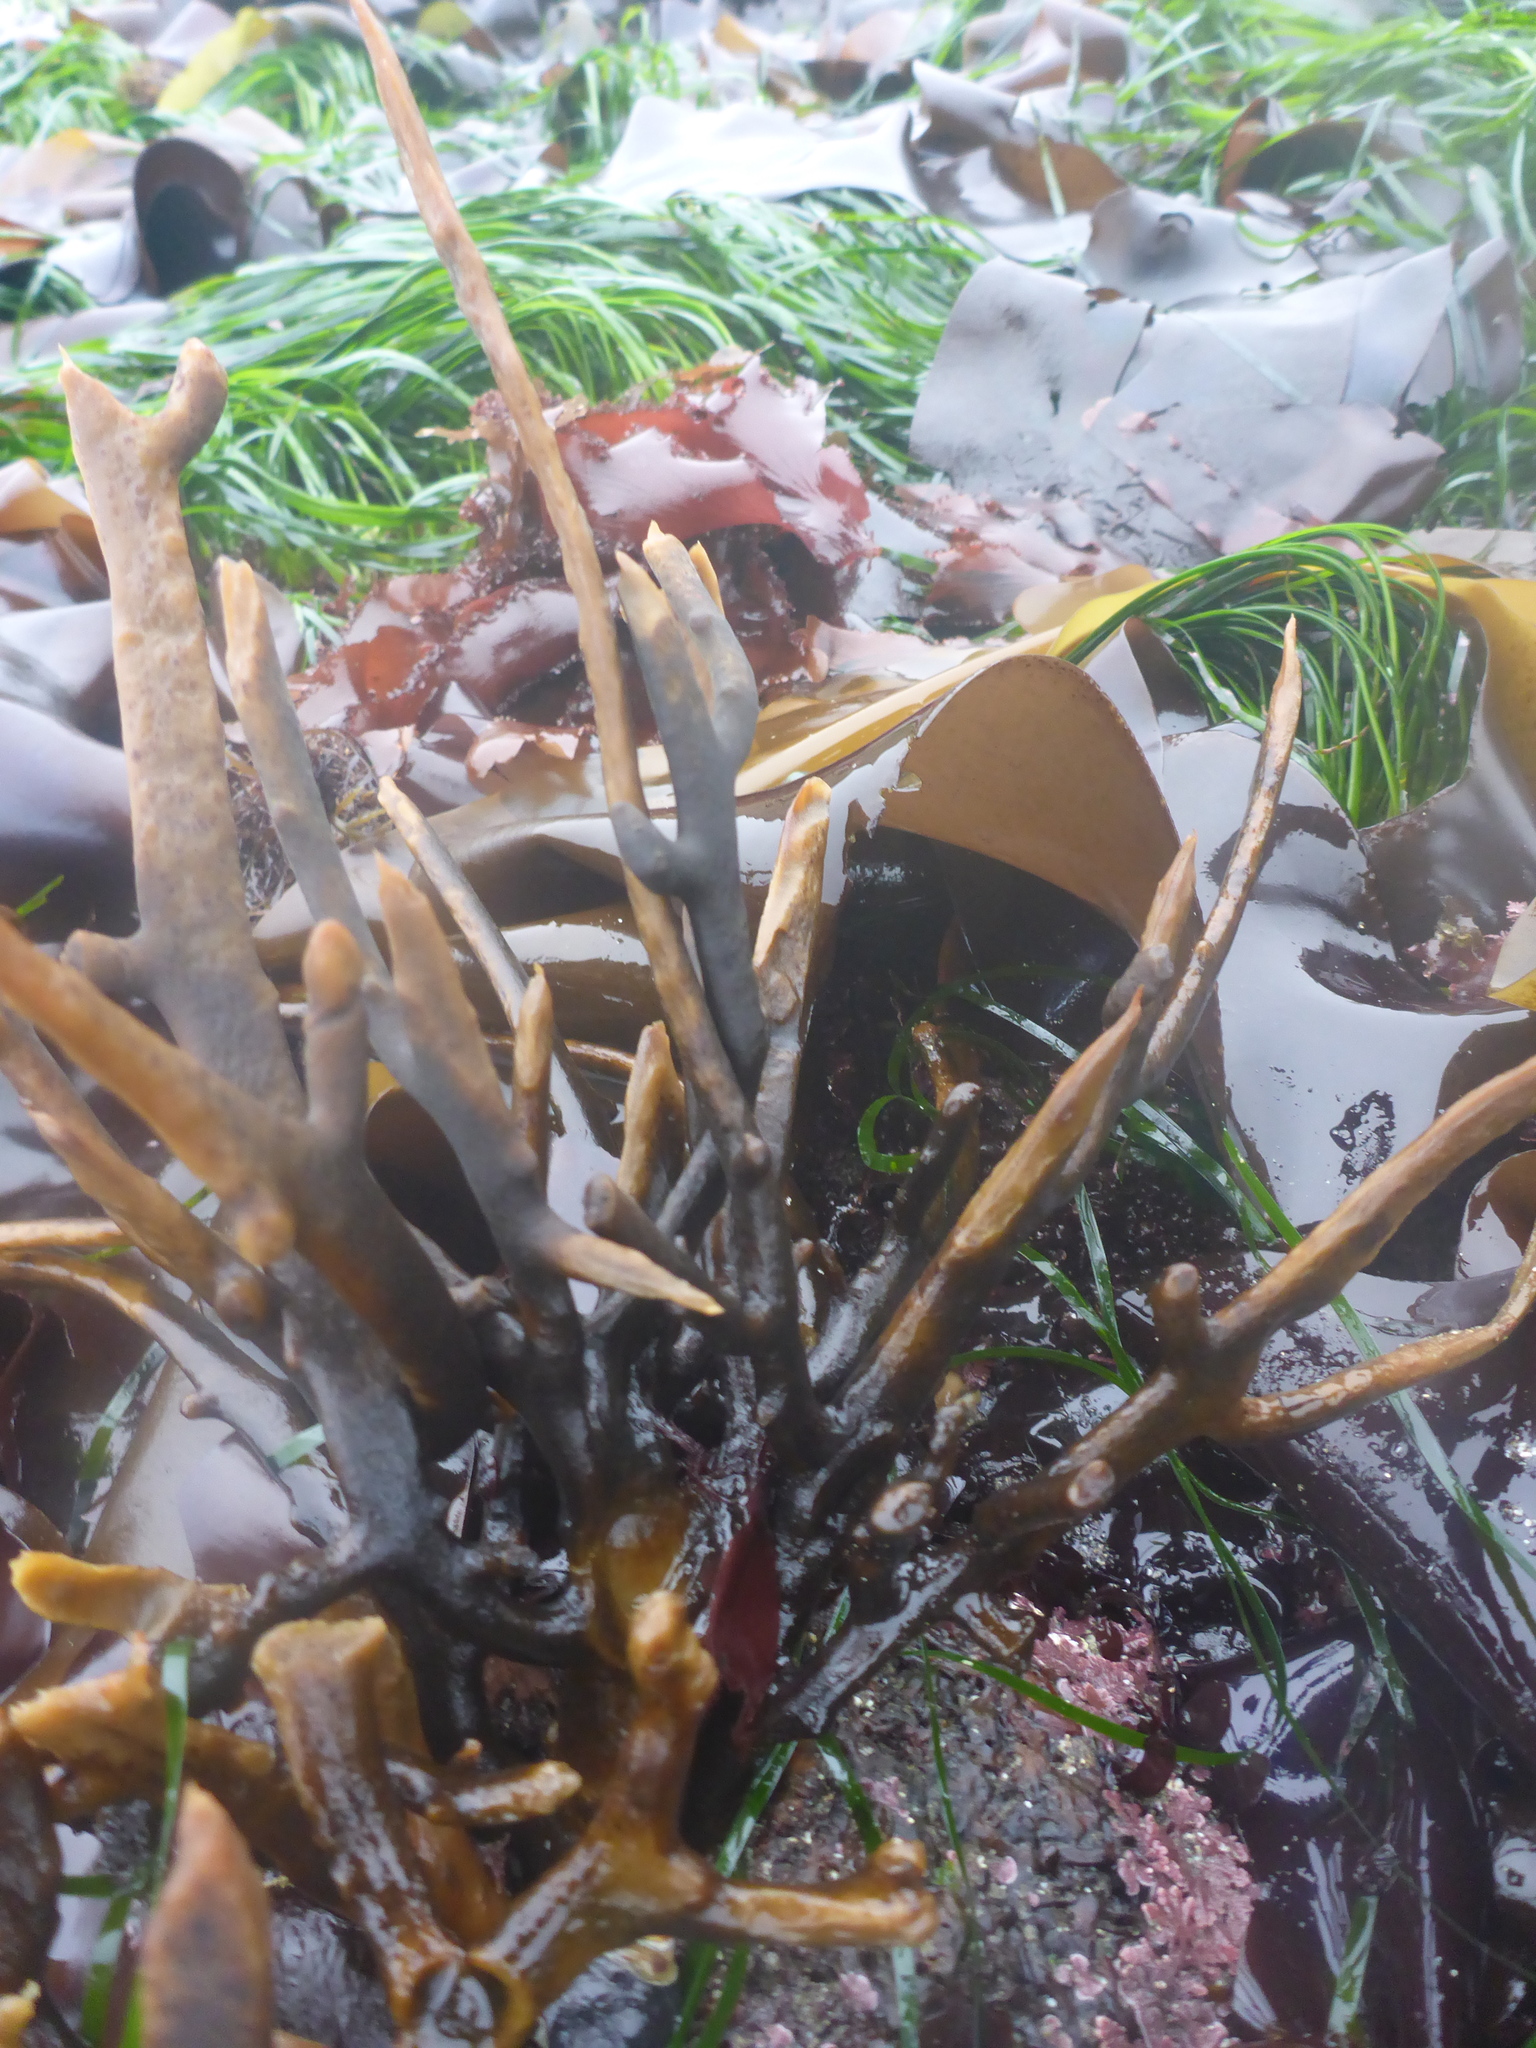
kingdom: Chromista
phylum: Ochrophyta
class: Phaeophyceae
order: Laminariales
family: Lessoniaceae
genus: Egregia
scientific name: Egregia menziesii
